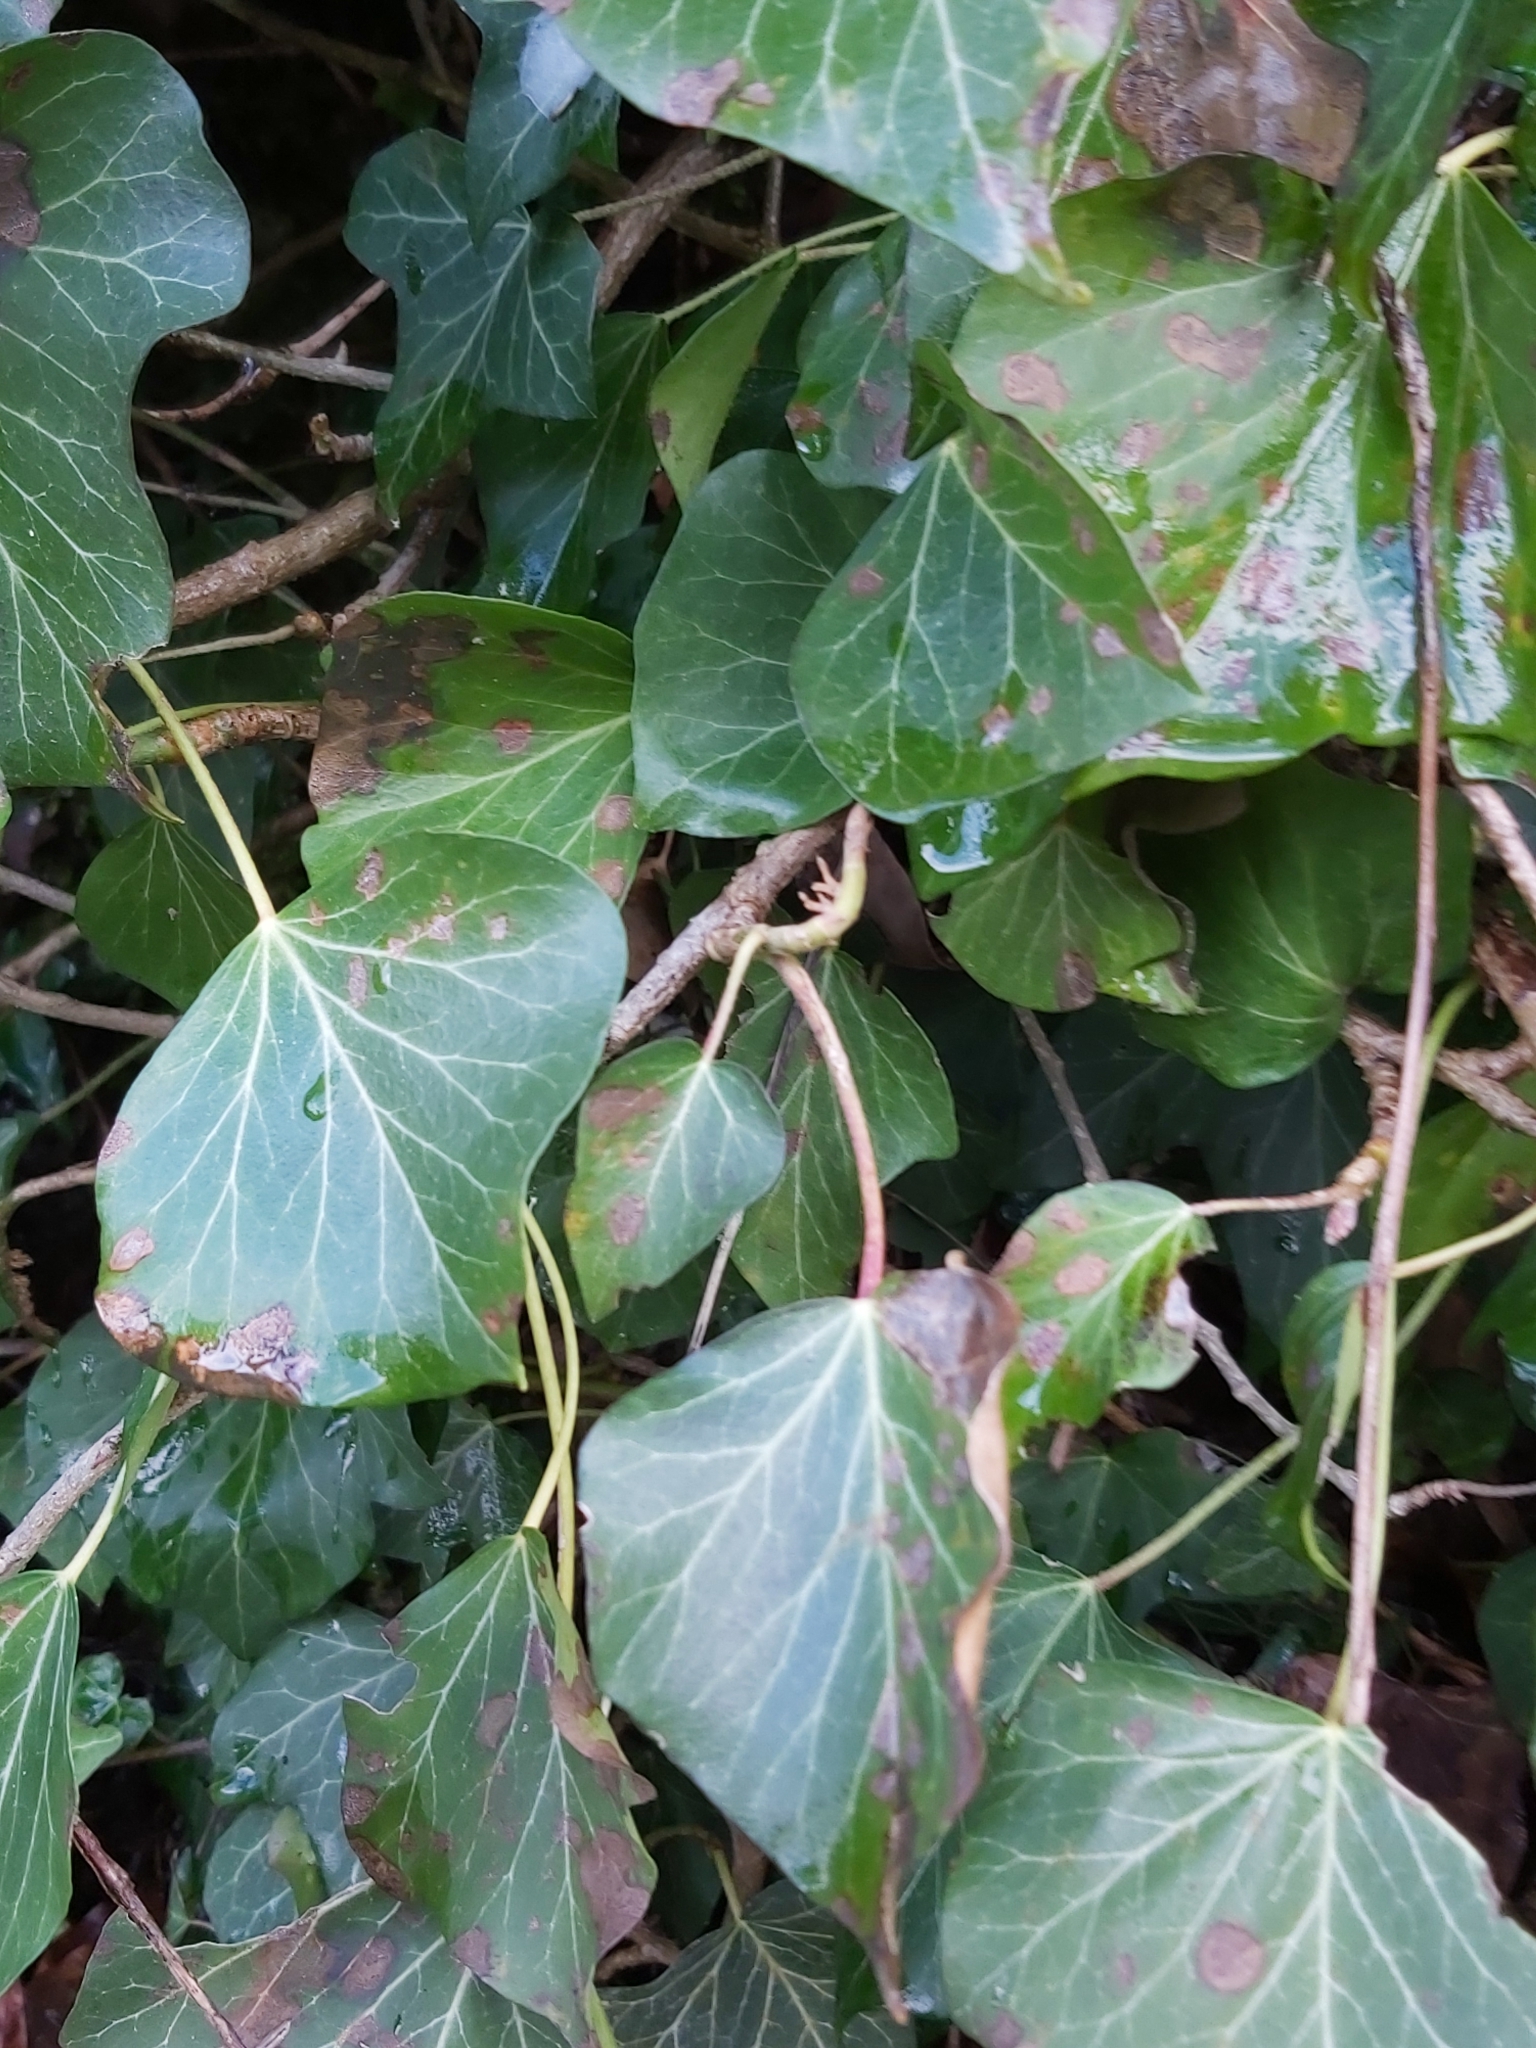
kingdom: Plantae
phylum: Tracheophyta
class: Magnoliopsida
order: Apiales
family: Araliaceae
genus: Hedera
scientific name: Hedera helix
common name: Ivy
